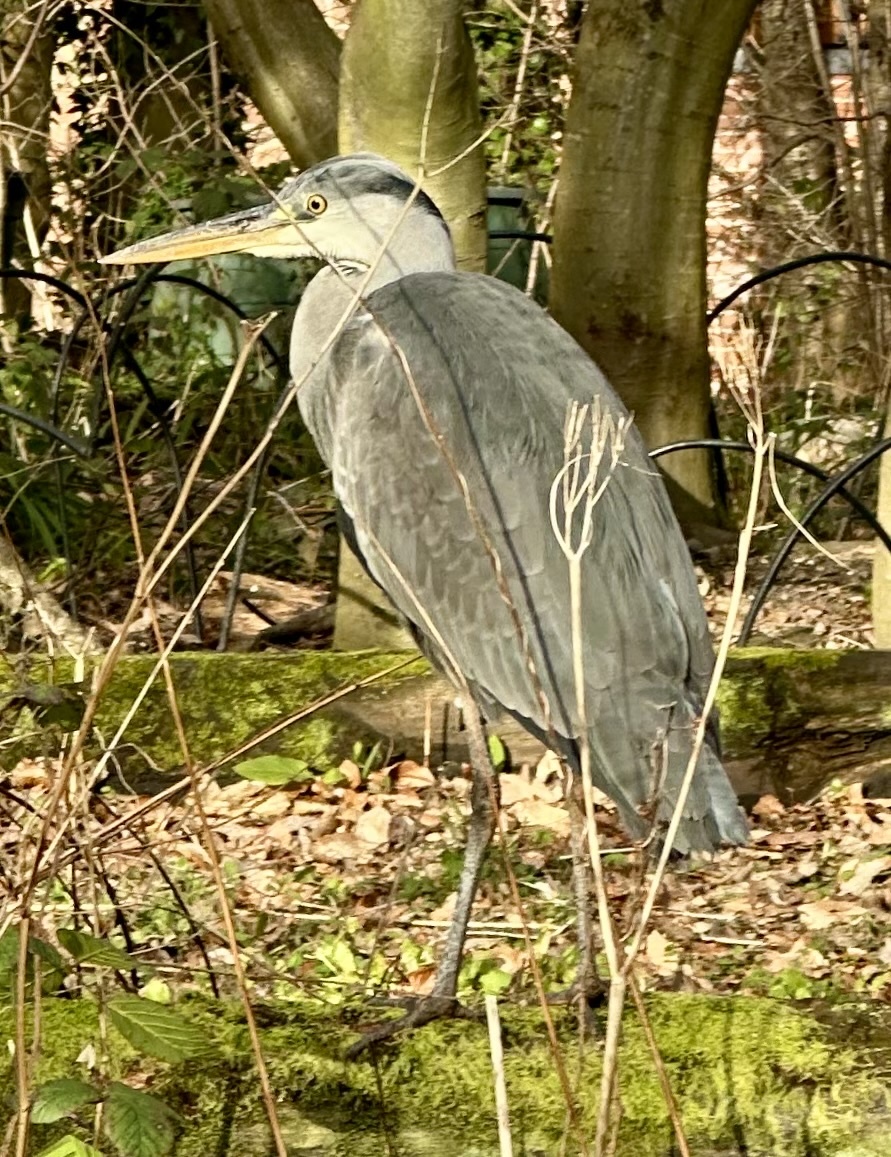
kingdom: Animalia
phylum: Chordata
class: Aves
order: Pelecaniformes
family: Ardeidae
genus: Ardea
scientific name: Ardea cinerea
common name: Grey heron
